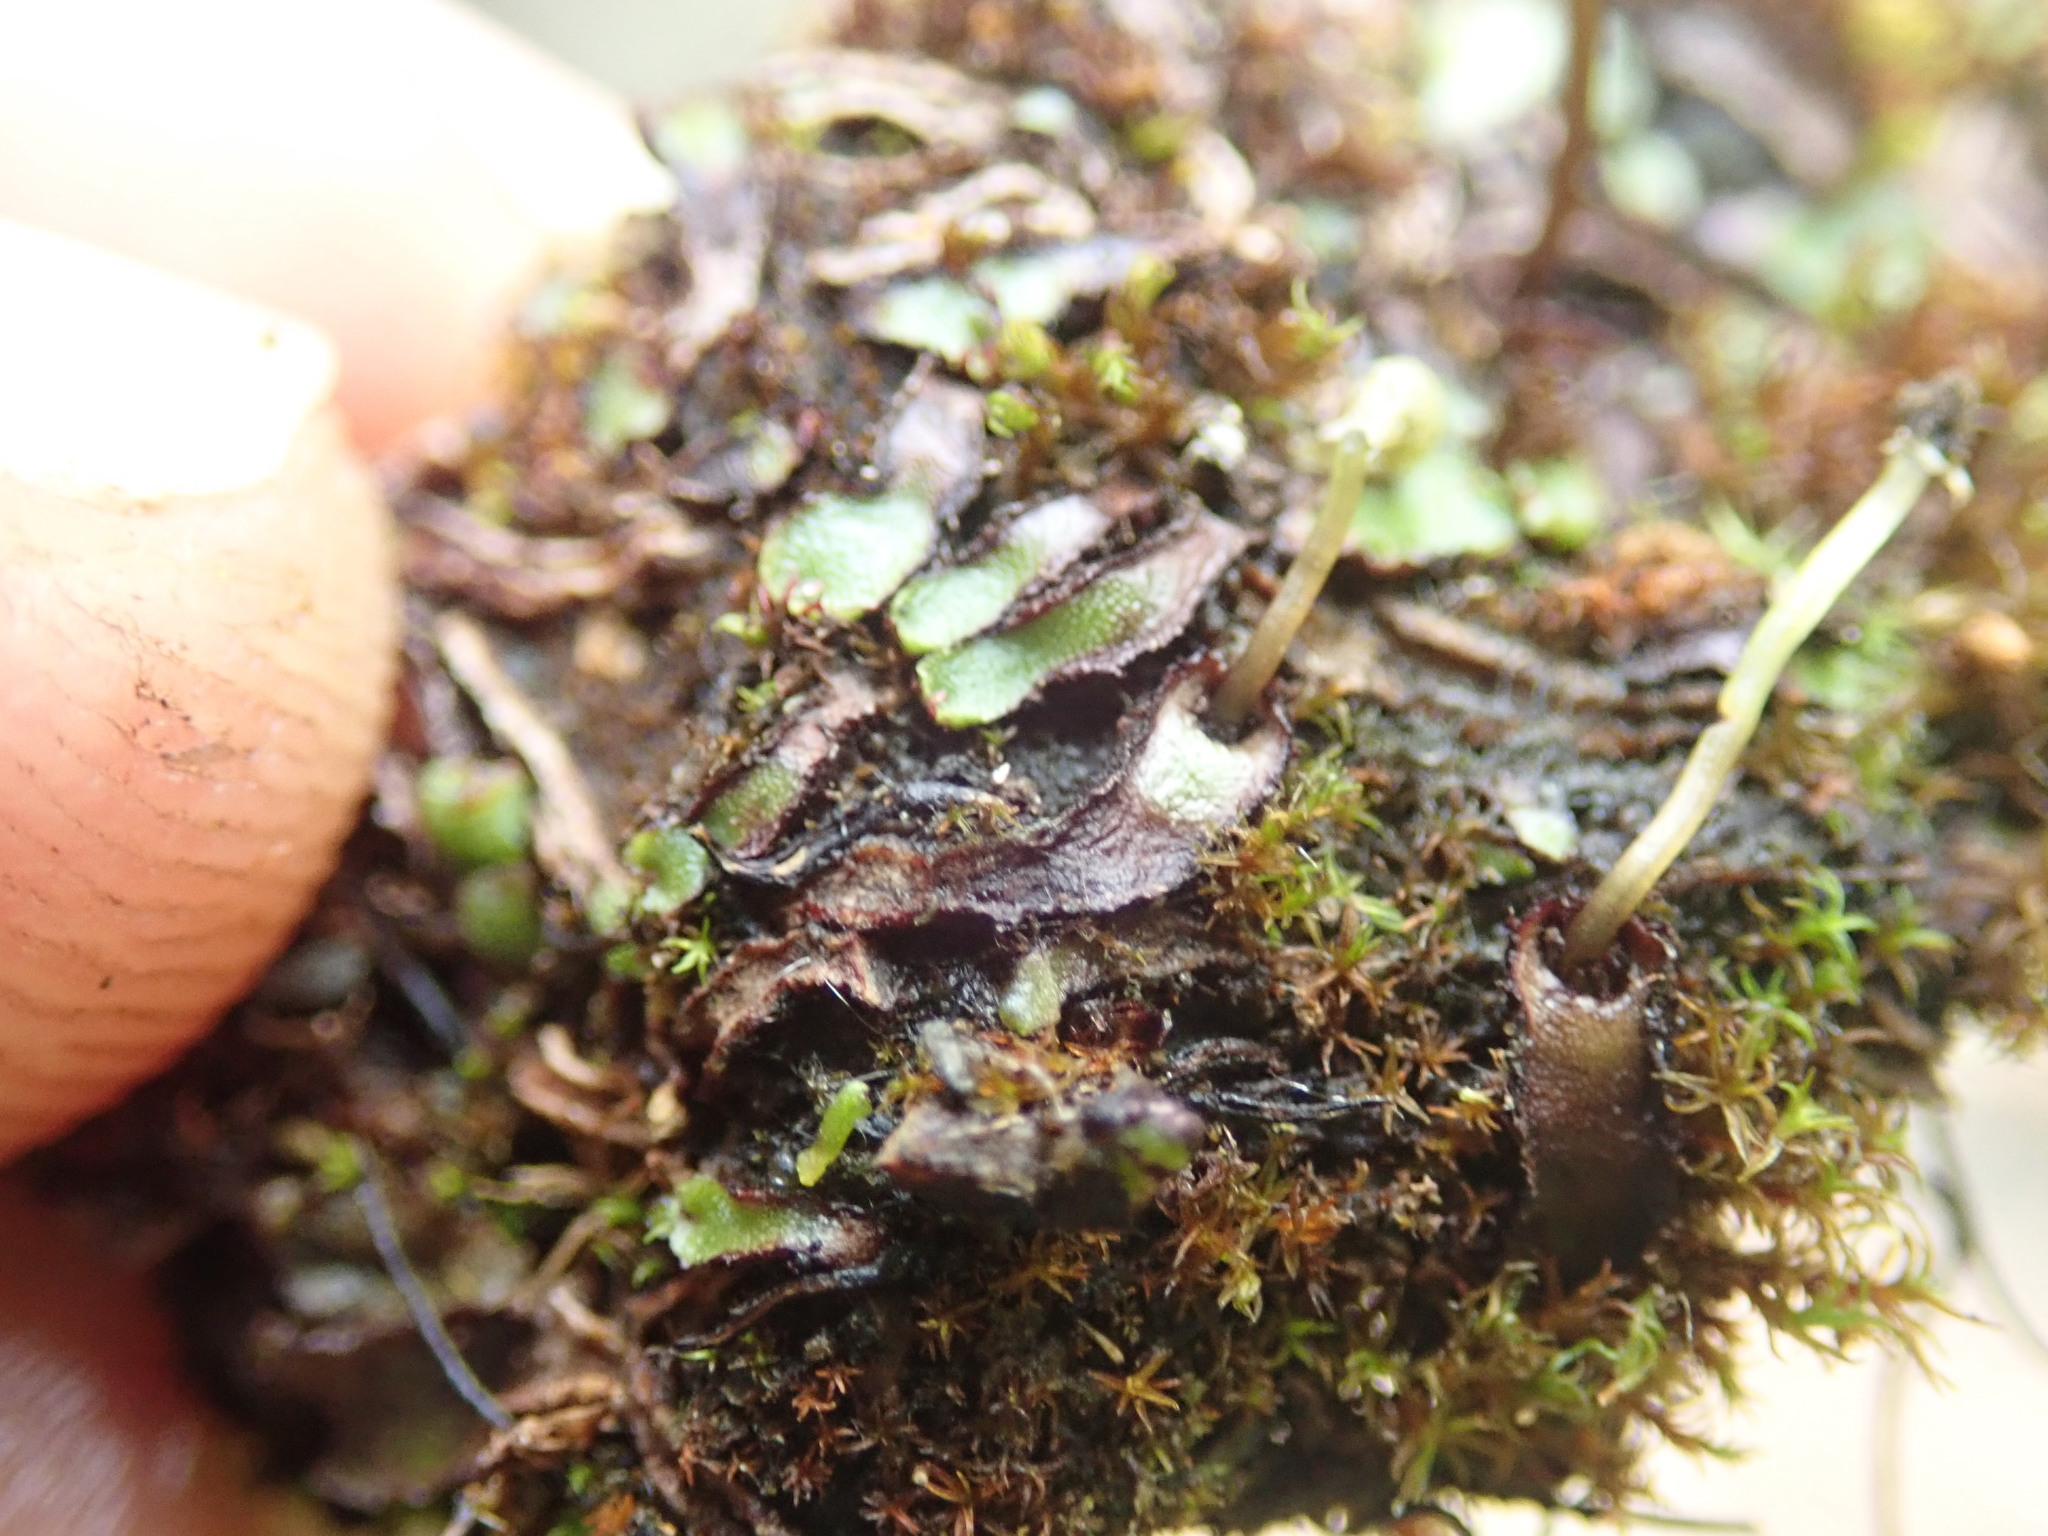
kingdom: Plantae
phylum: Marchantiophyta
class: Marchantiopsida
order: Marchantiales
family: Aytoniaceae
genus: Mannia
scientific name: Mannia gracilis
